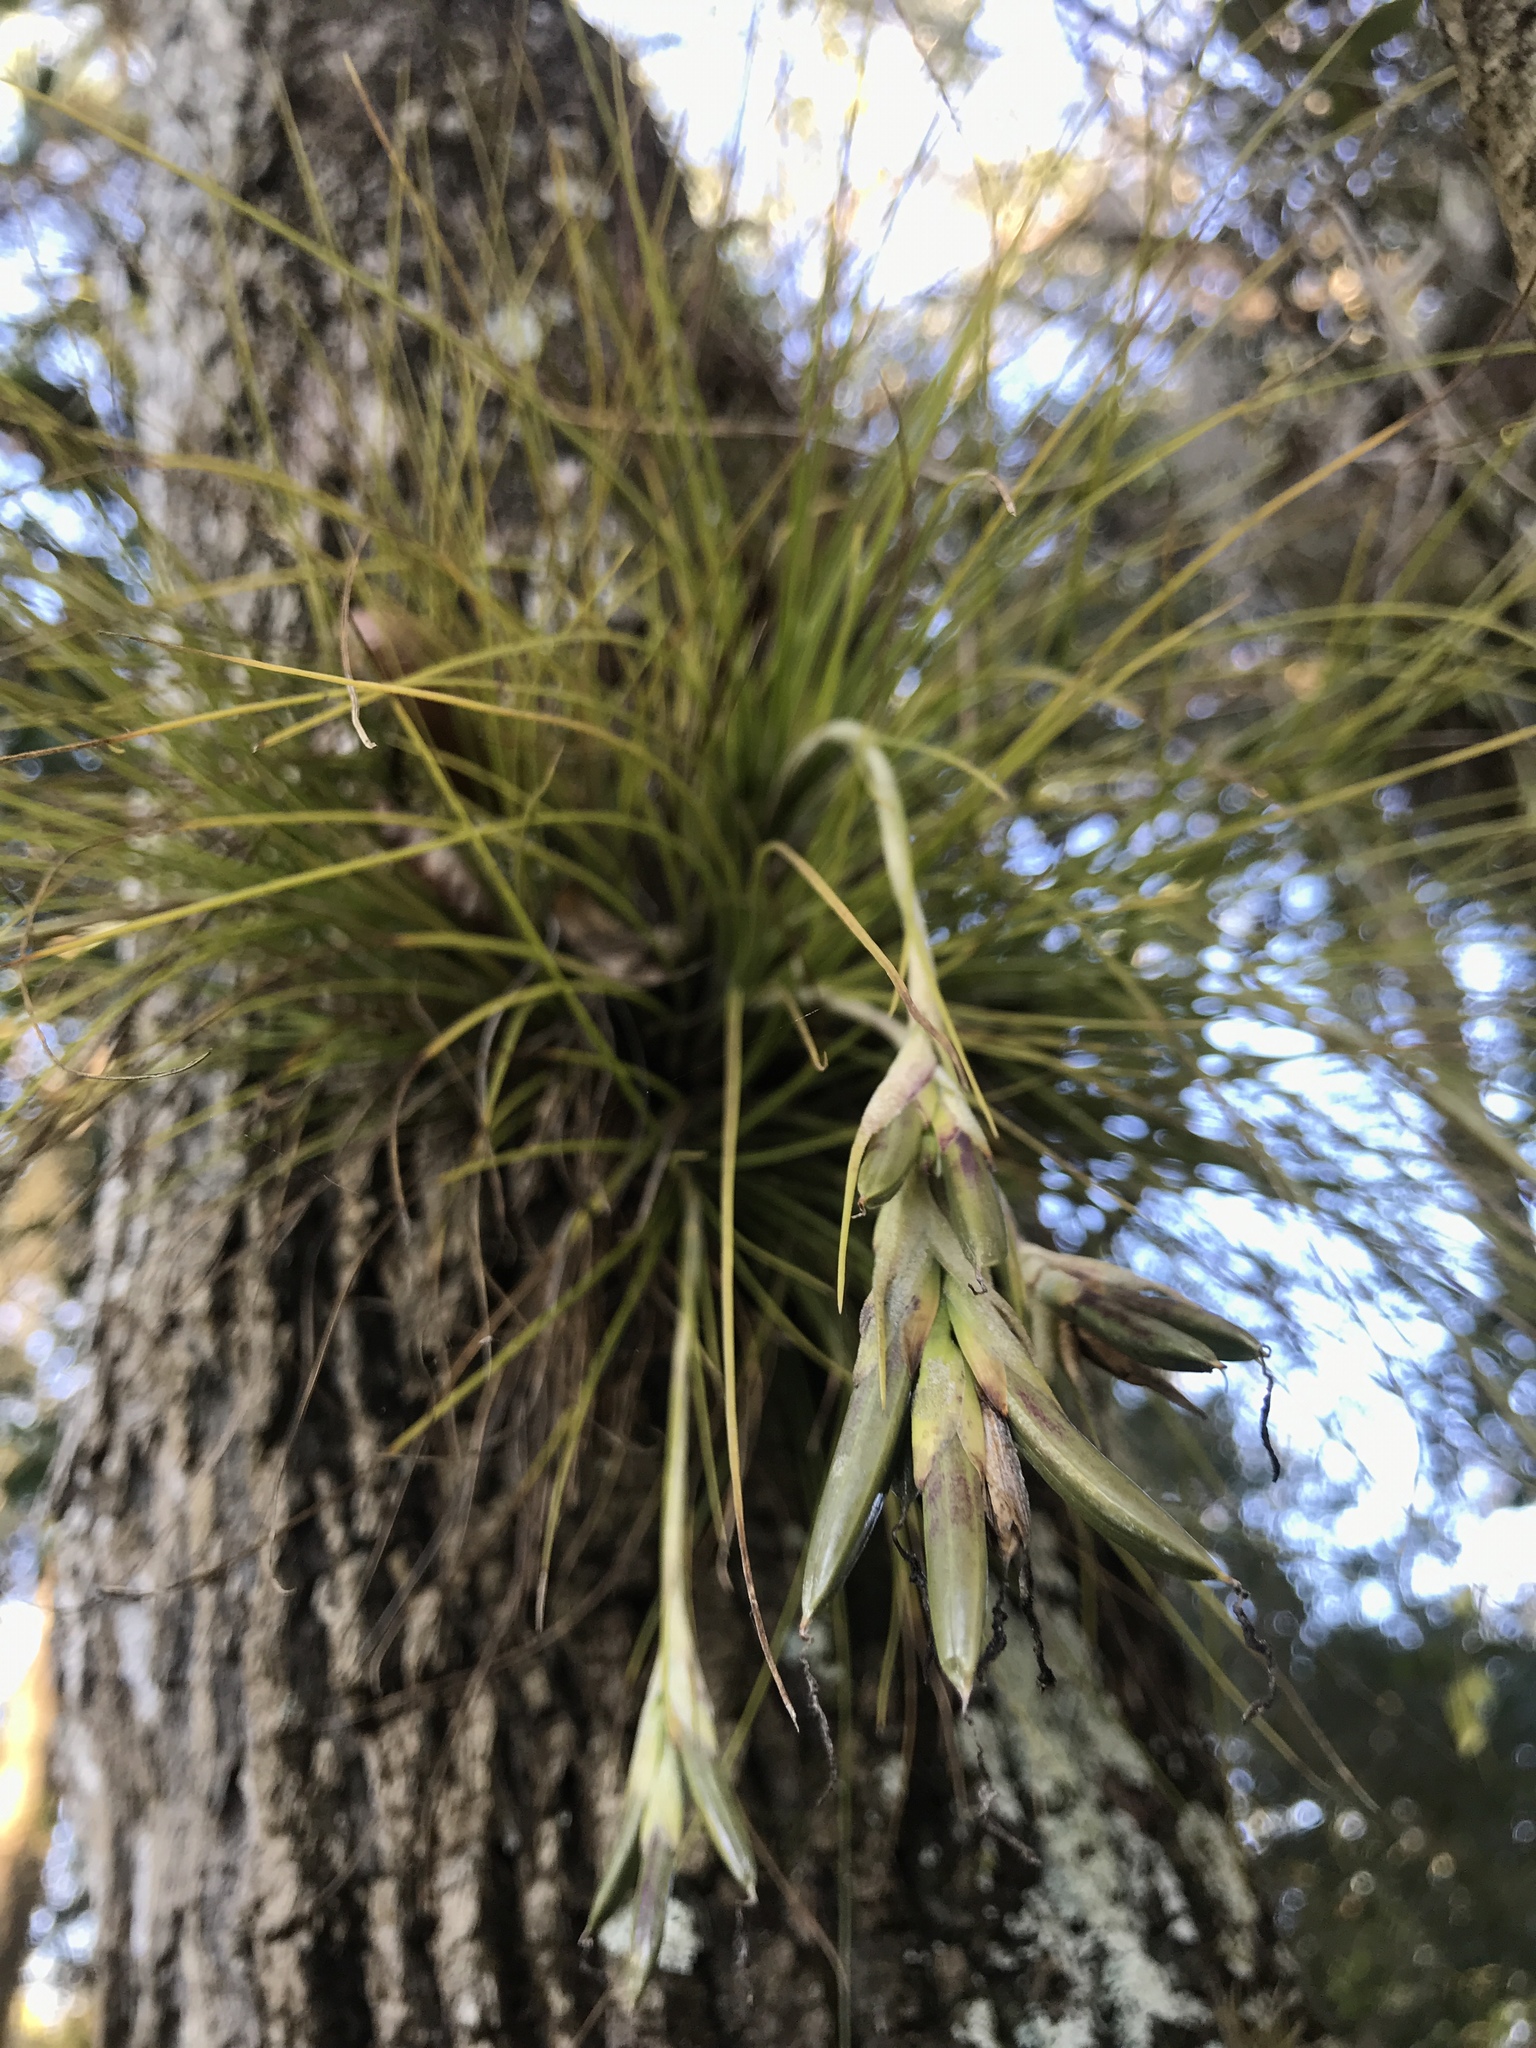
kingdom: Plantae
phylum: Tracheophyta
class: Liliopsida
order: Poales
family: Bromeliaceae
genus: Tillandsia
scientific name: Tillandsia setacea
